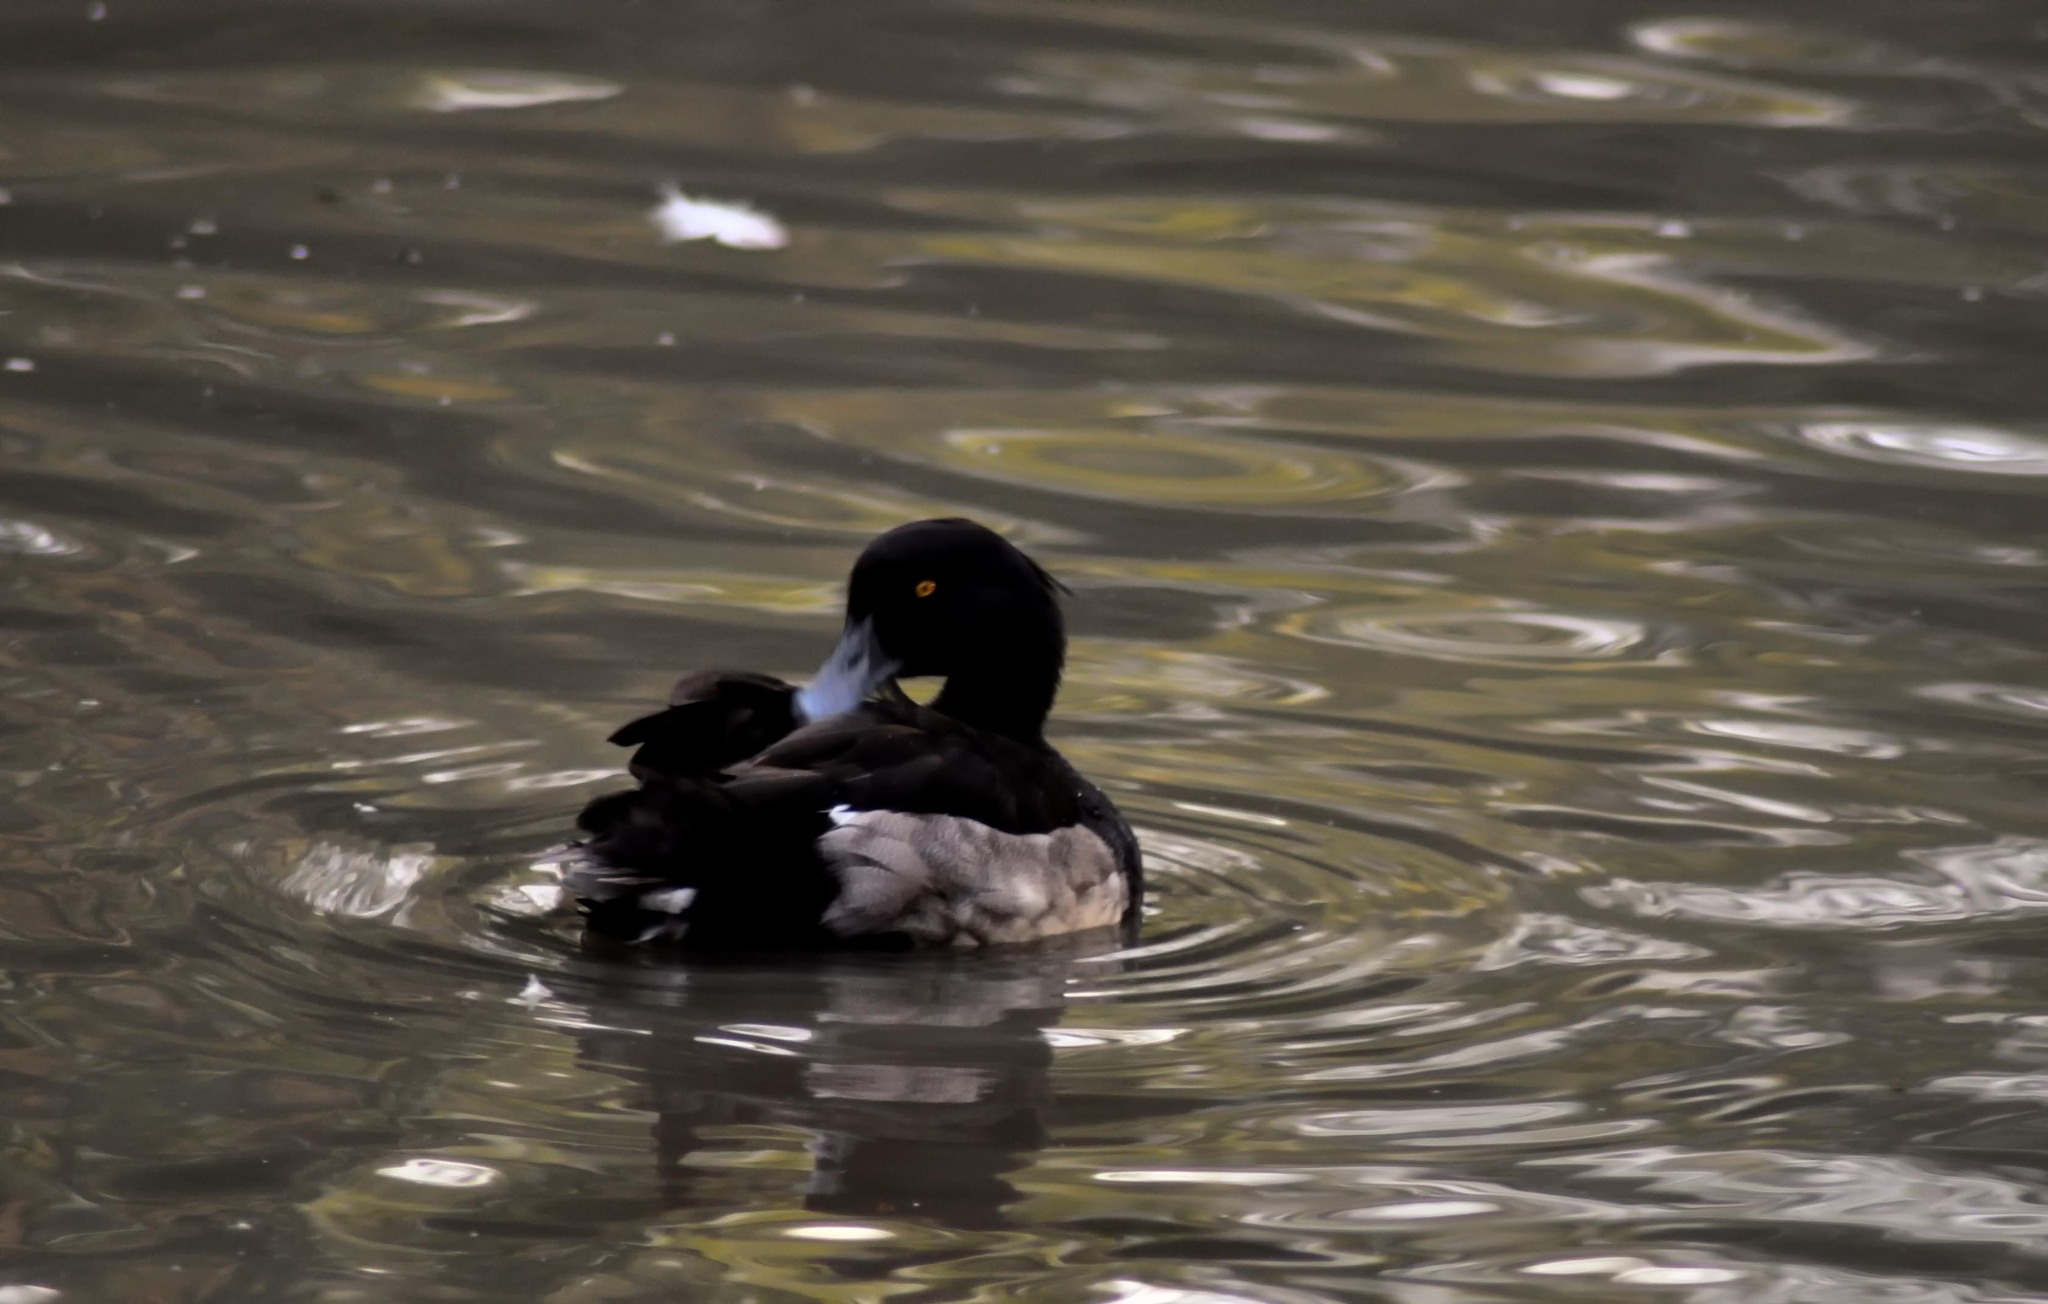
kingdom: Animalia
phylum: Chordata
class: Aves
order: Anseriformes
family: Anatidae
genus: Aythya
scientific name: Aythya fuligula
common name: Tufted duck
